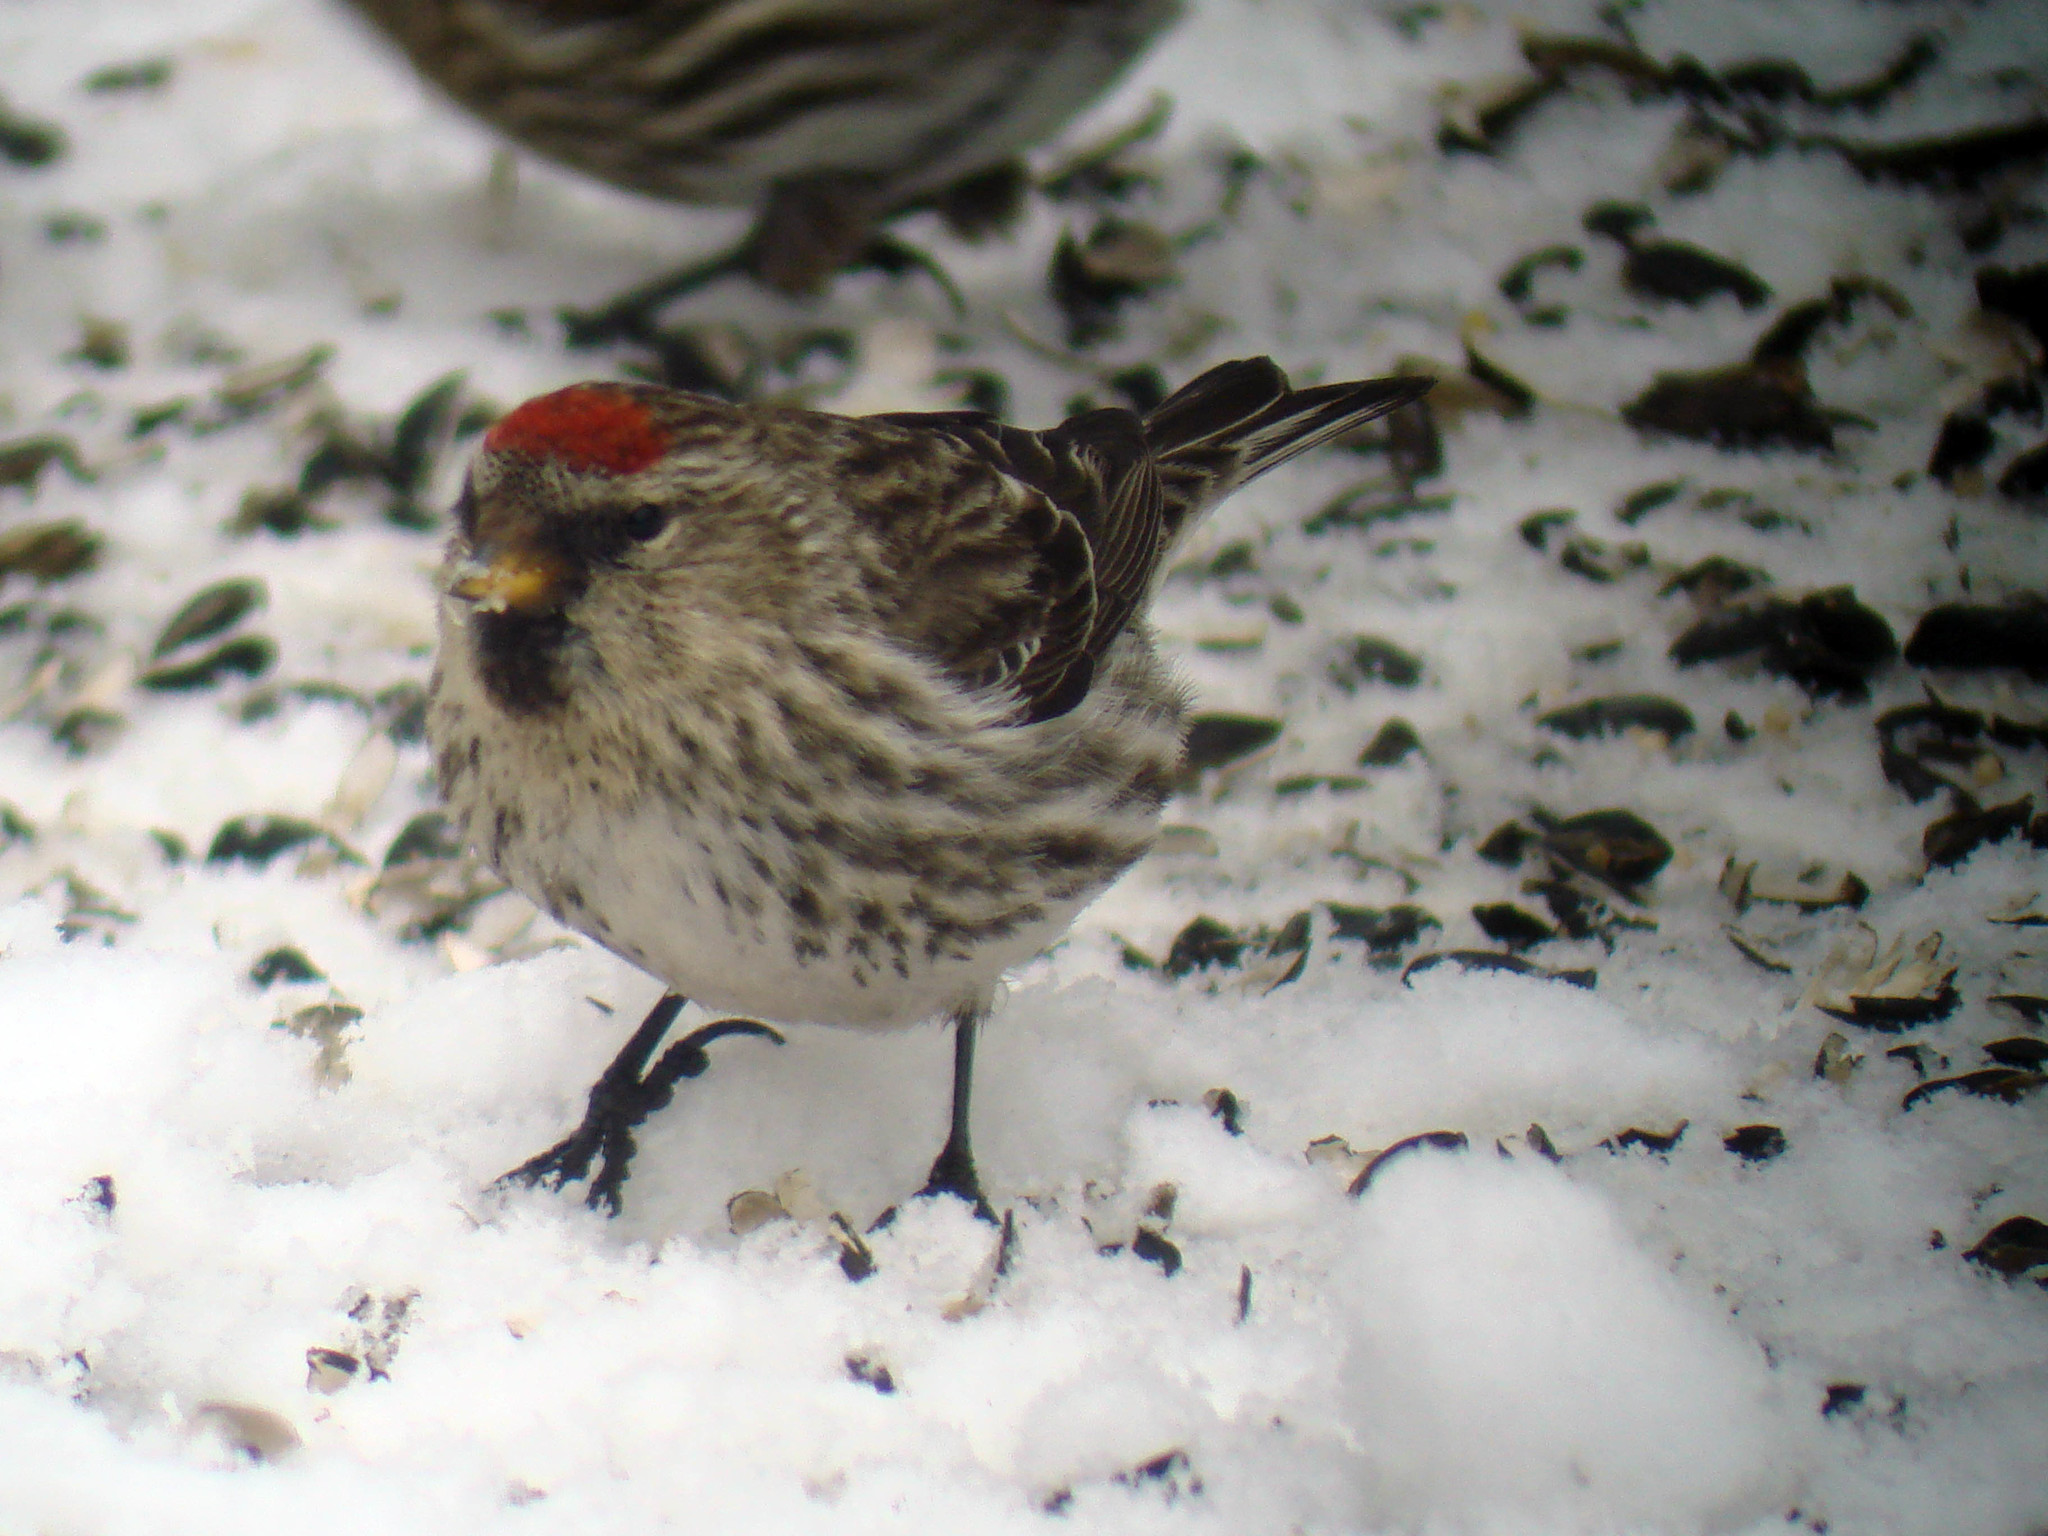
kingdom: Animalia
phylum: Chordata
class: Aves
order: Passeriformes
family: Fringillidae
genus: Acanthis
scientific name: Acanthis flammea
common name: Common redpoll
